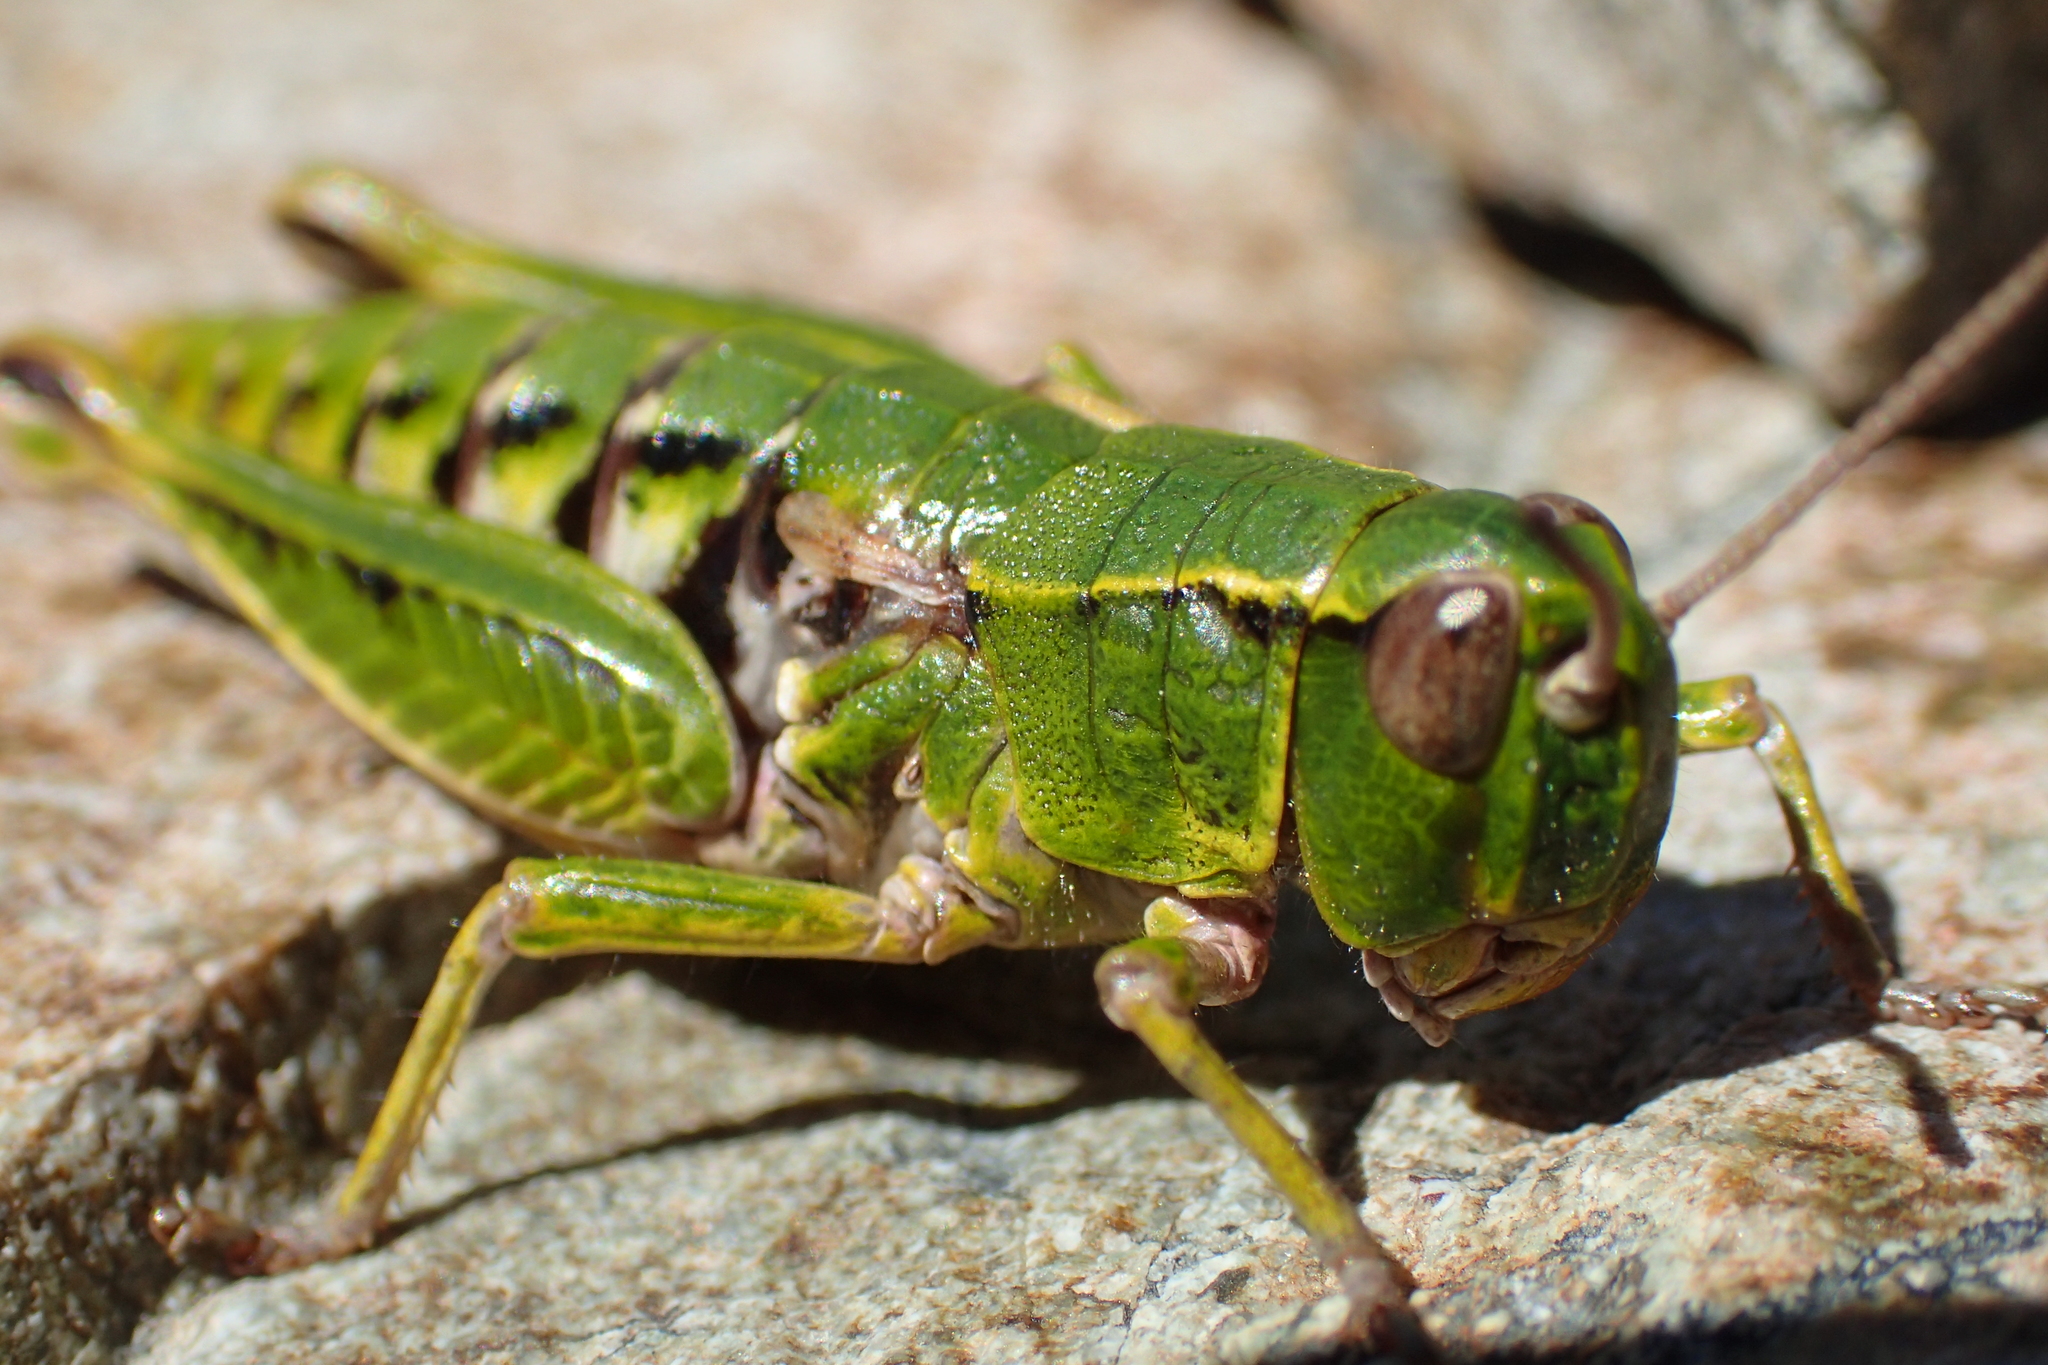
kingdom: Animalia
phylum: Arthropoda
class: Insecta
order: Orthoptera
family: Acrididae
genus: Sigaus
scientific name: Sigaus australis
